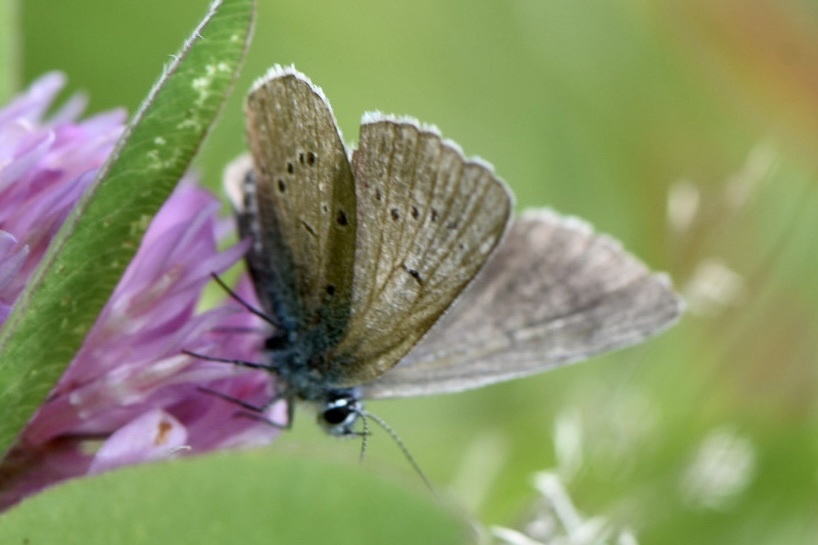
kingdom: Animalia
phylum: Arthropoda
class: Insecta
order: Lepidoptera
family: Lycaenidae
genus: Cyaniris
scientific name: Cyaniris semiargus
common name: Mazarine blue
